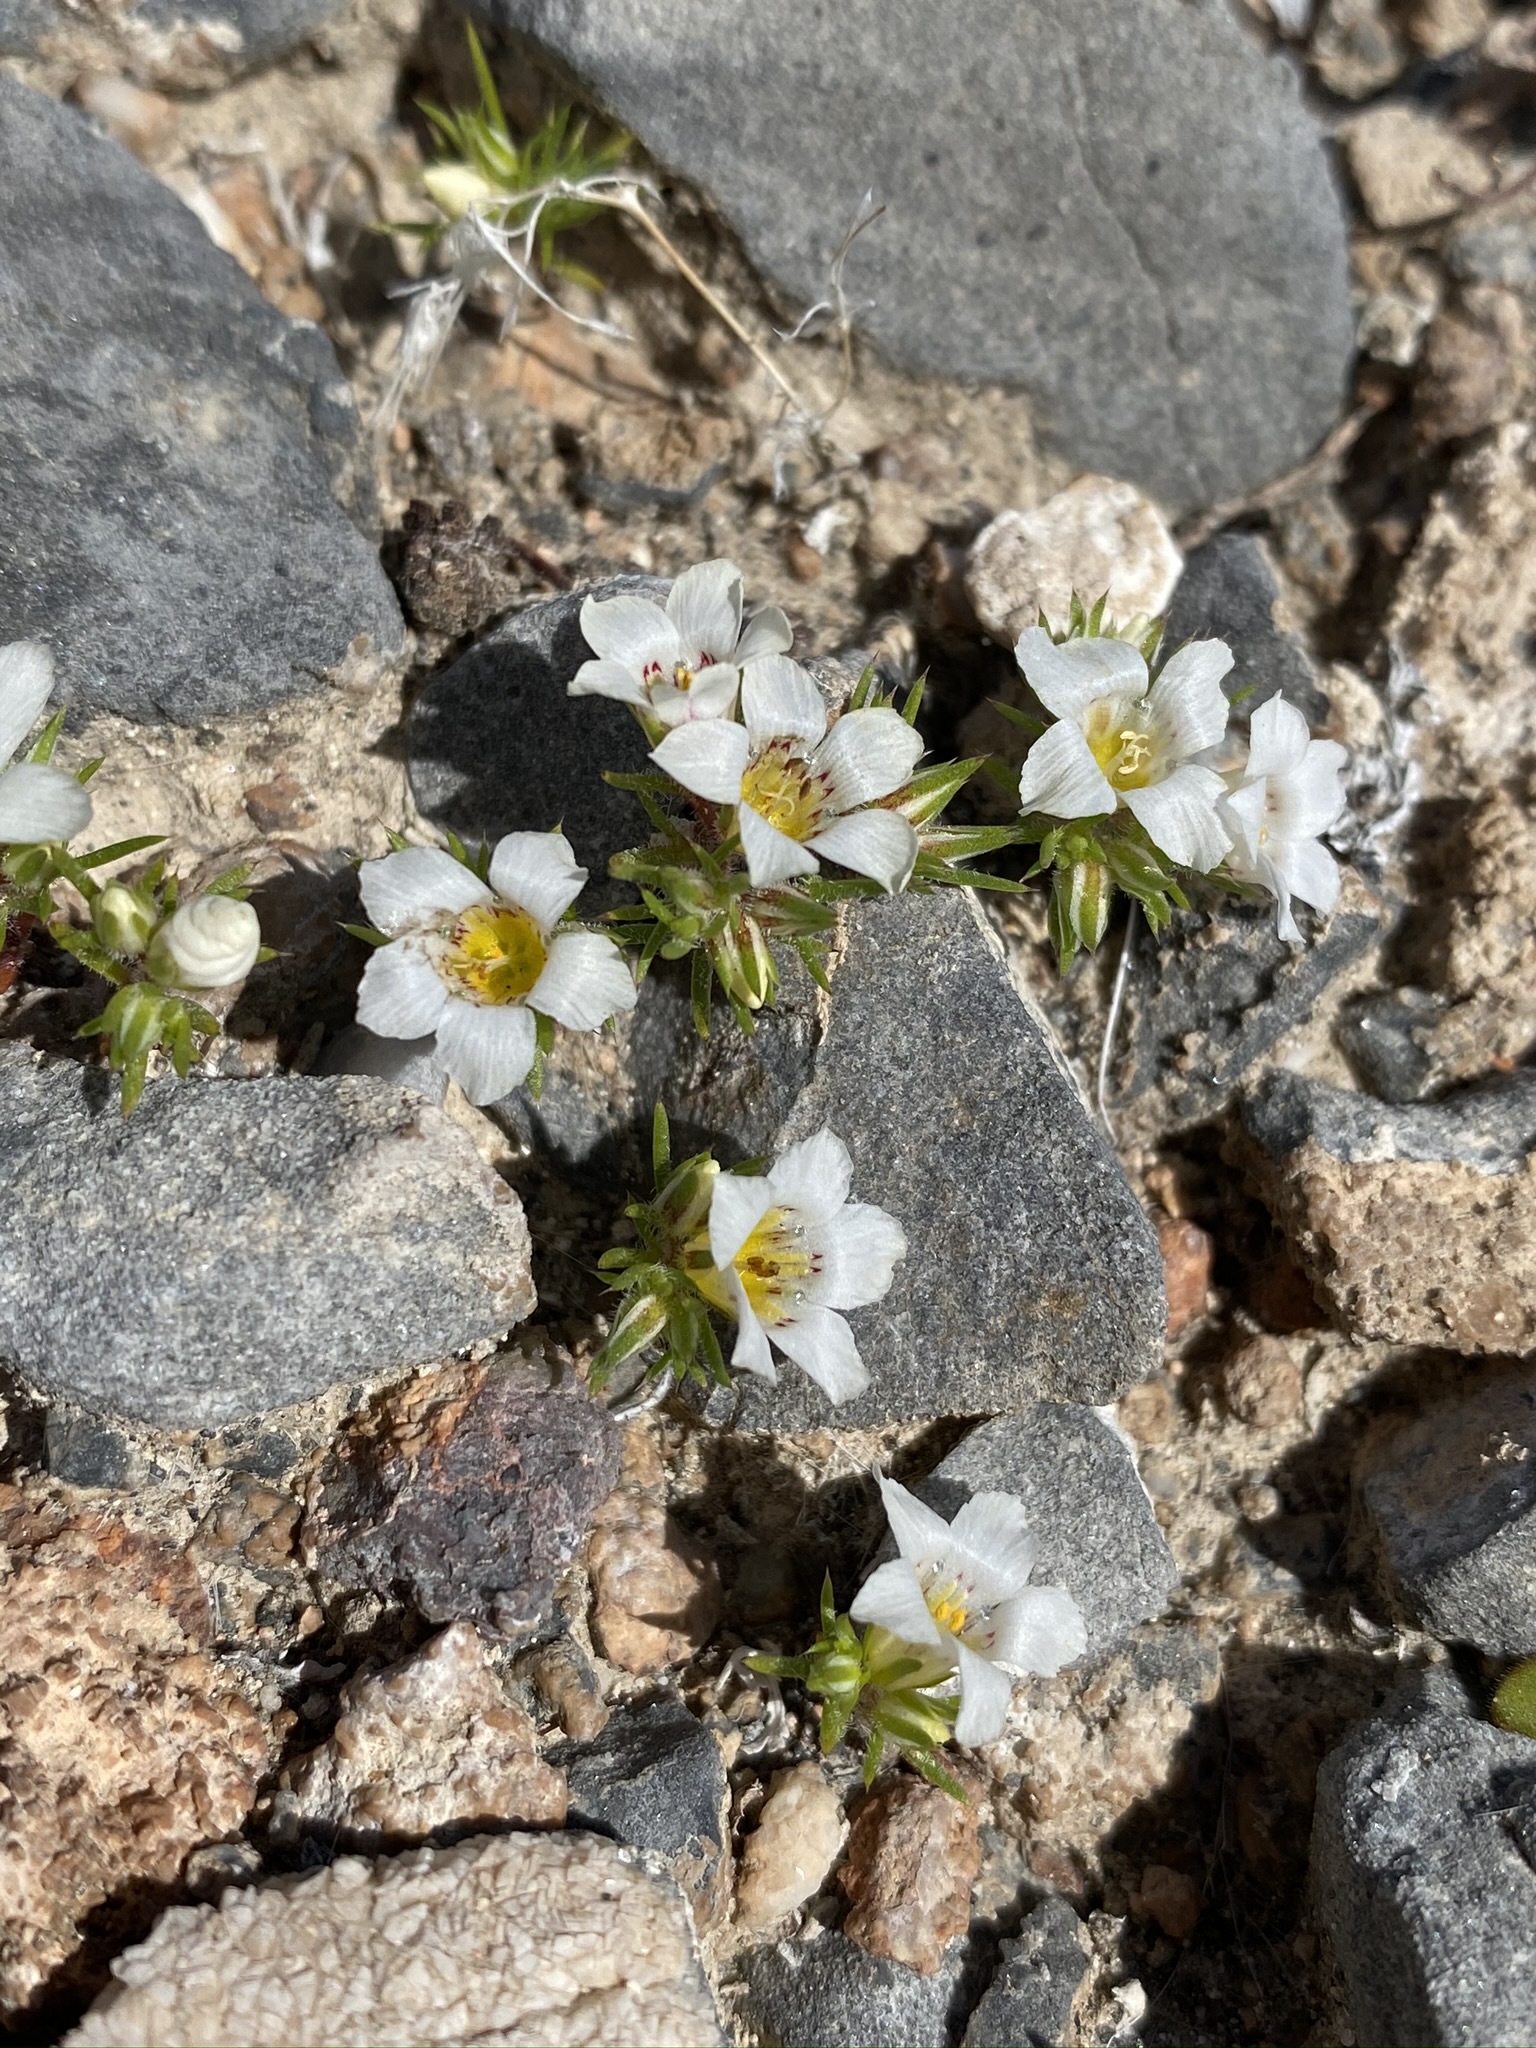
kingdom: Plantae
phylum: Tracheophyta
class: Magnoliopsida
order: Ericales
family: Polemoniaceae
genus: Linanthus
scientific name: Linanthus demissus
